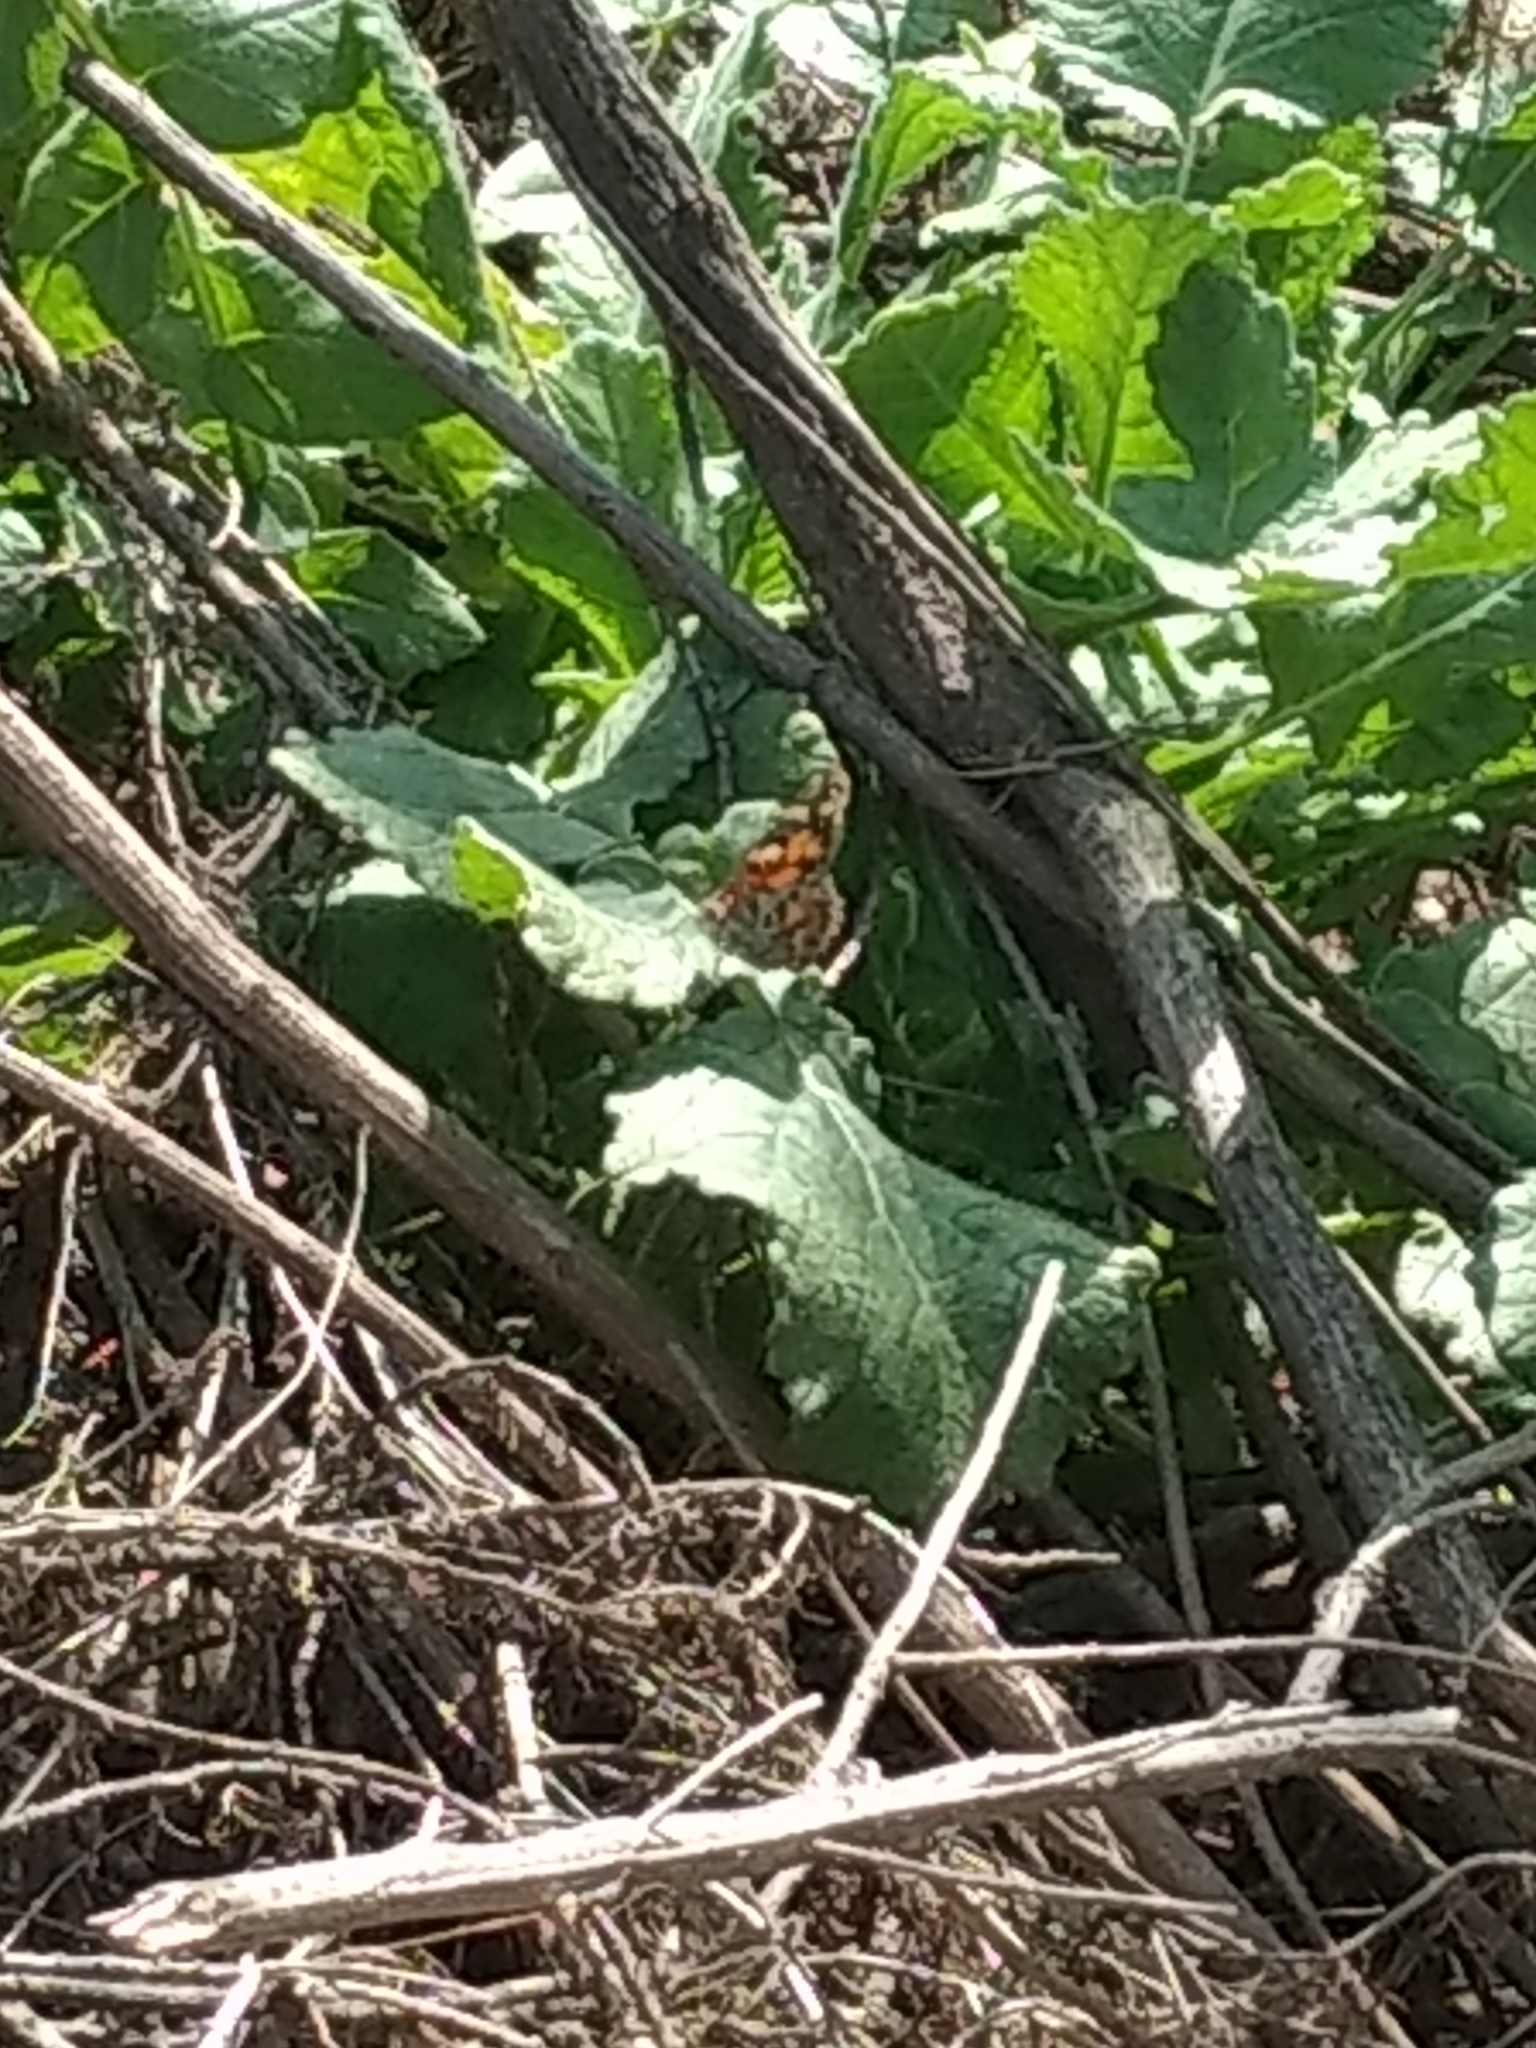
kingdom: Animalia
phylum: Arthropoda
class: Insecta
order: Lepidoptera
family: Nymphalidae
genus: Vanessa
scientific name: Vanessa cardui
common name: Painted lady
